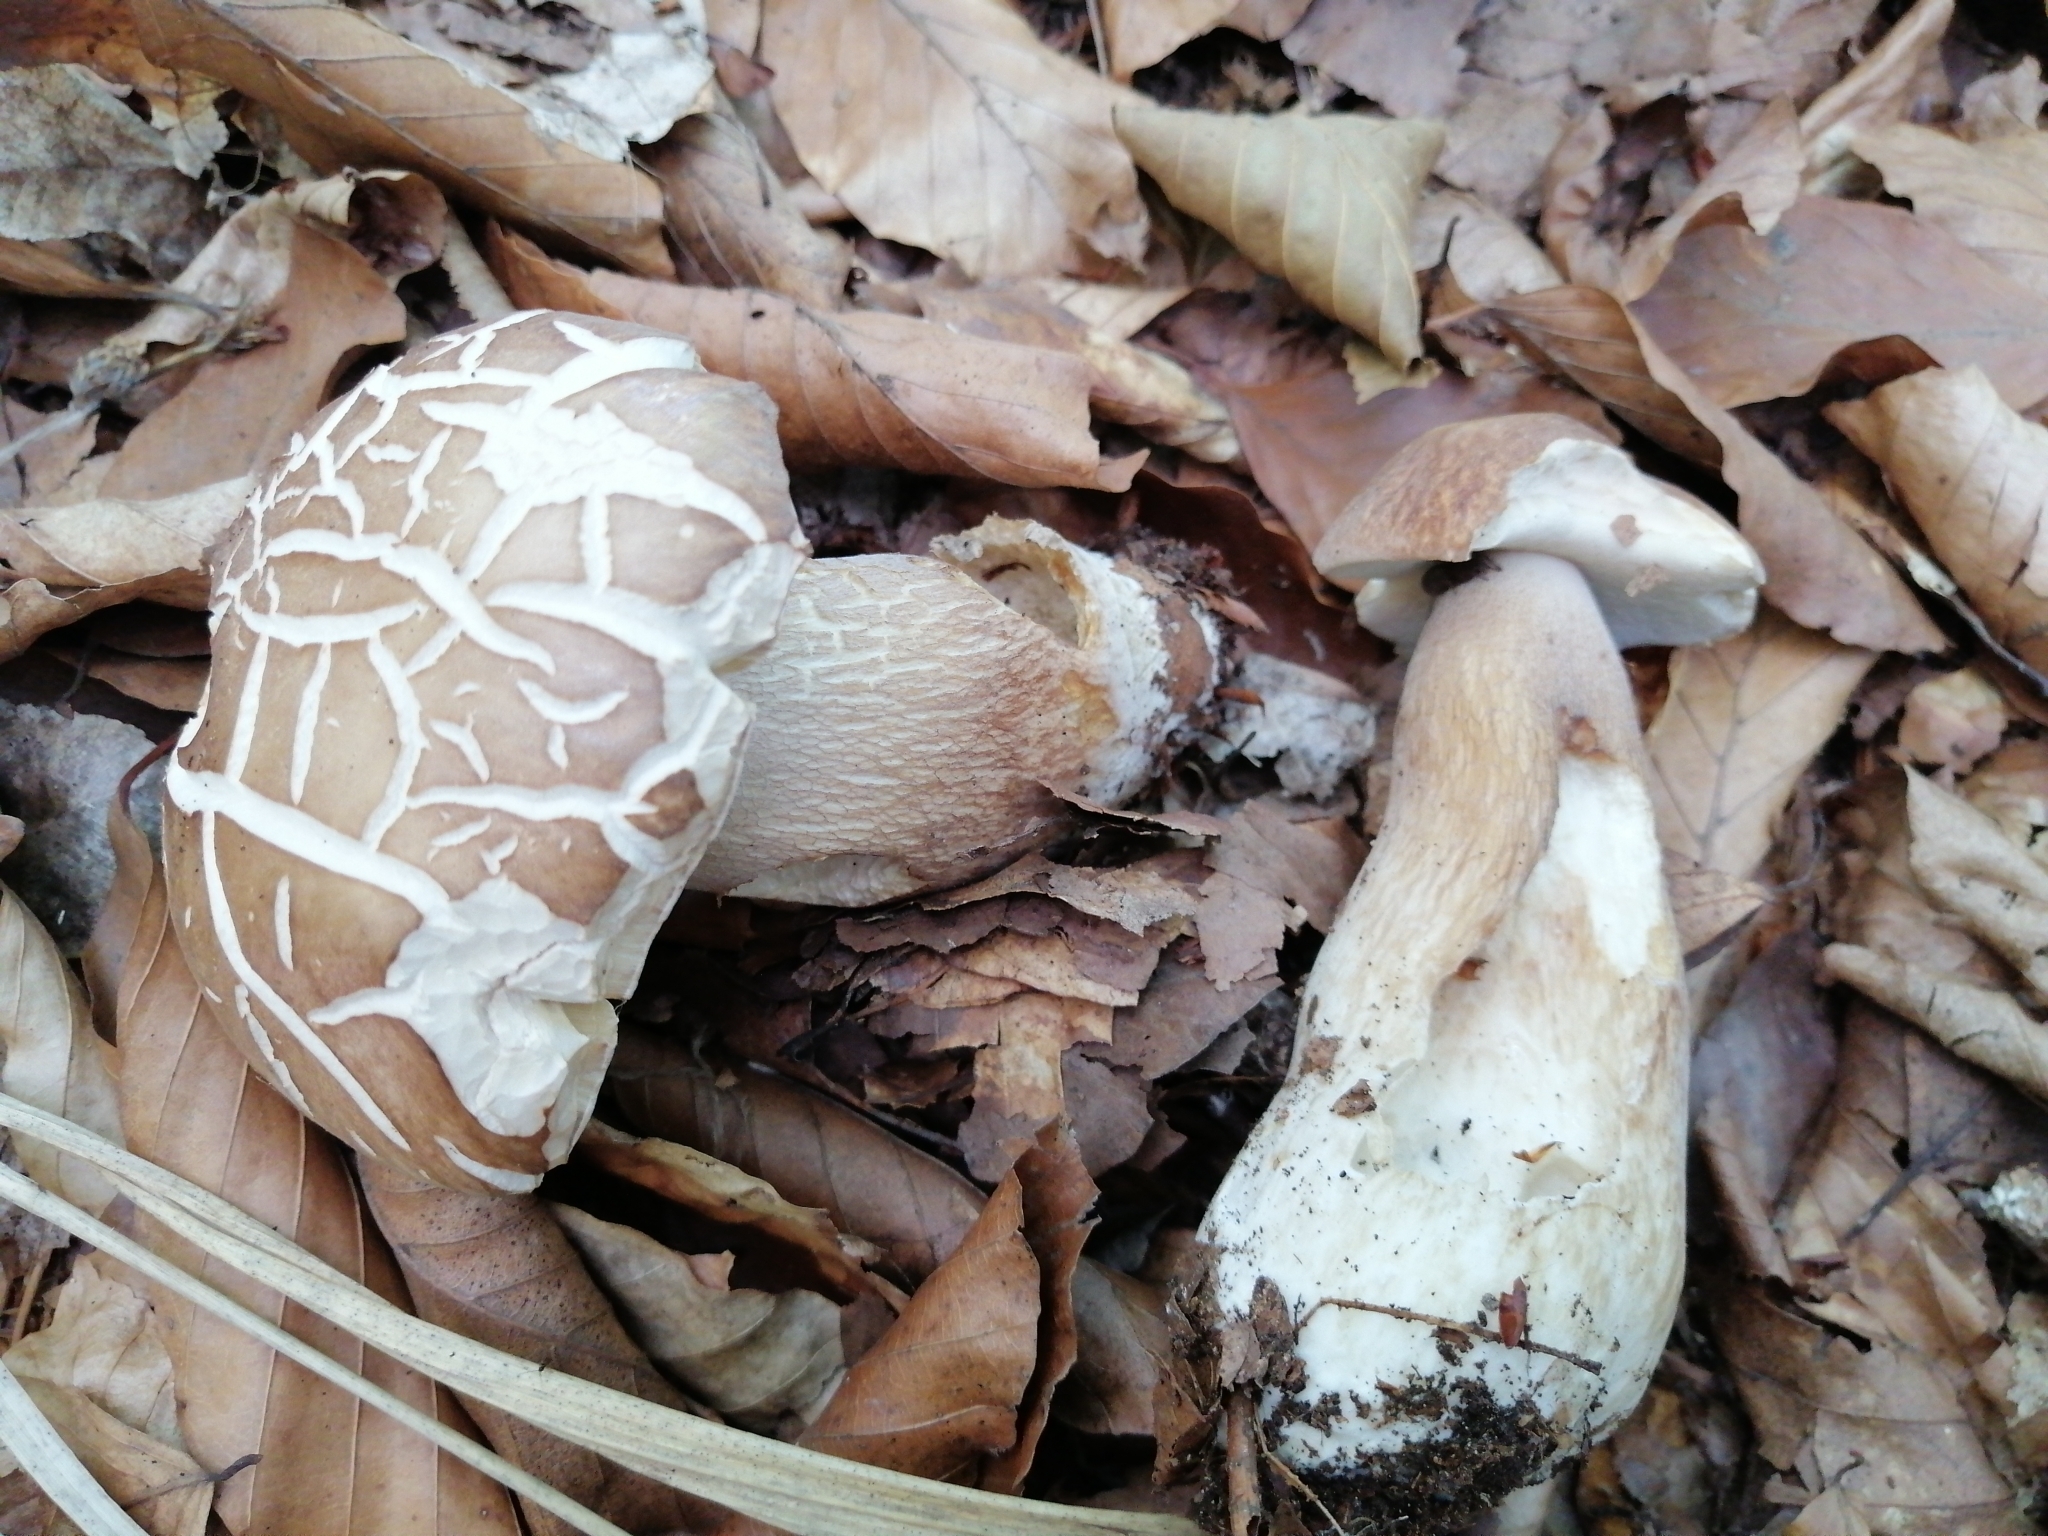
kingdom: Fungi
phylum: Basidiomycota
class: Agaricomycetes
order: Boletales
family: Boletaceae
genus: Boletus
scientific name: Boletus reticulatus
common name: Summer bolete
